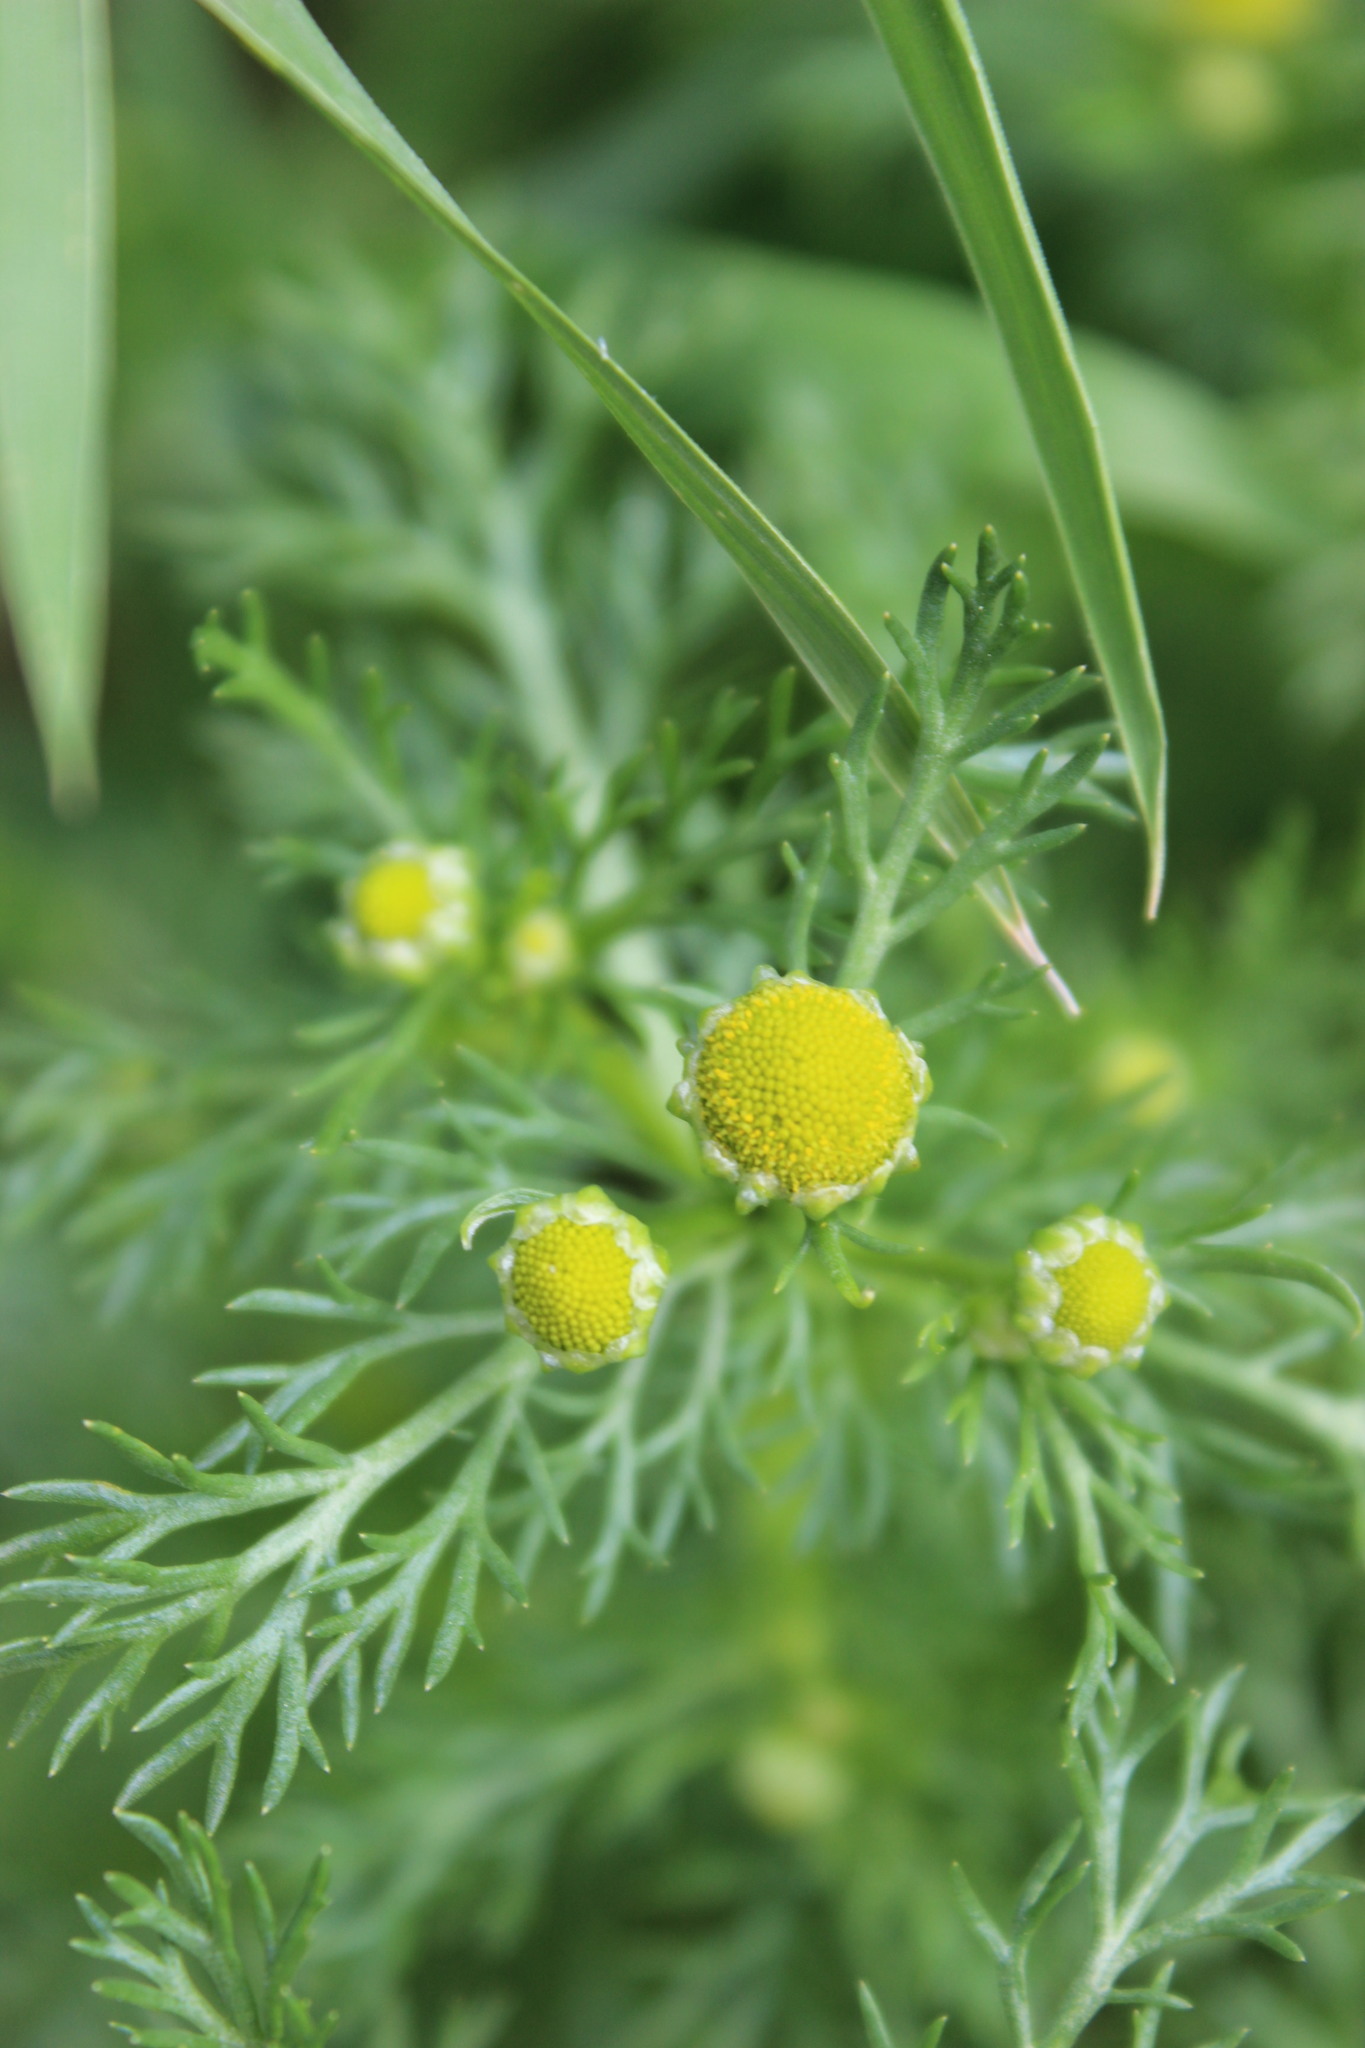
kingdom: Plantae
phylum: Tracheophyta
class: Magnoliopsida
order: Asterales
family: Asteraceae
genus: Matricaria
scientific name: Matricaria discoidea
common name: Disc mayweed
